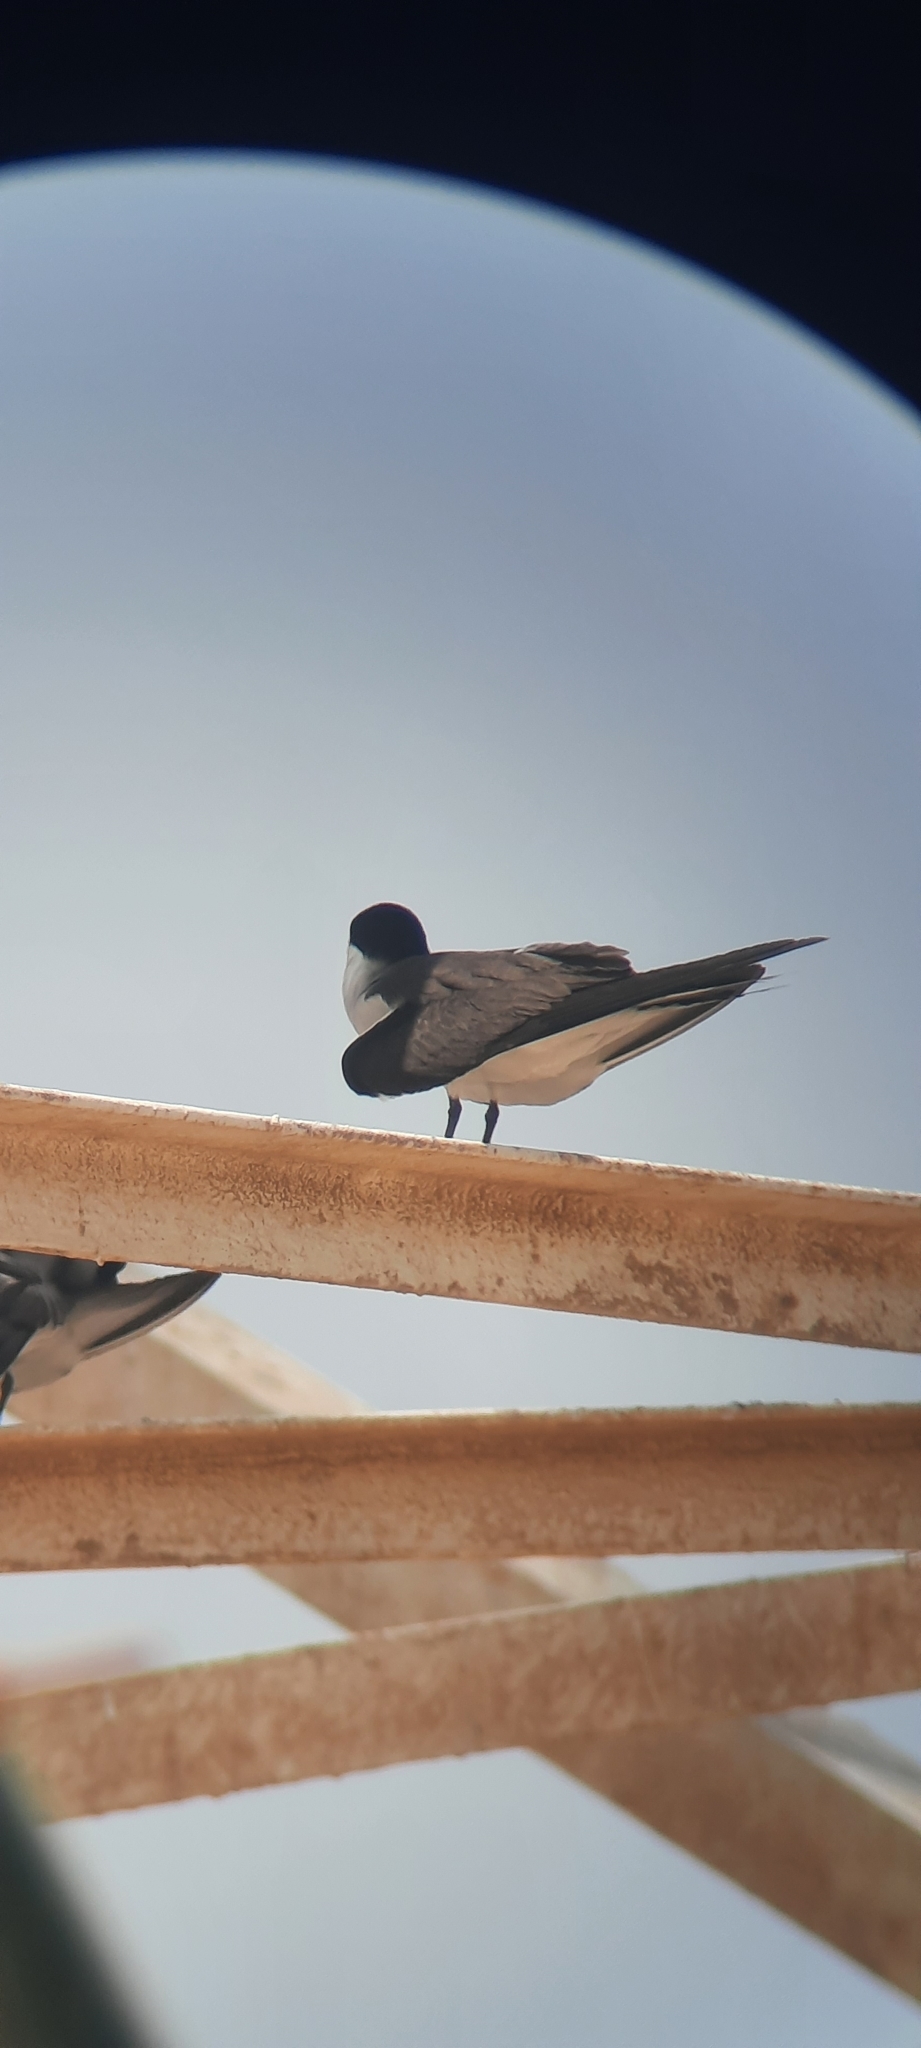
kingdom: Animalia
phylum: Chordata
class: Aves
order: Charadriiformes
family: Laridae
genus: Onychoprion
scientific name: Onychoprion anaethetus
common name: Bridled tern
